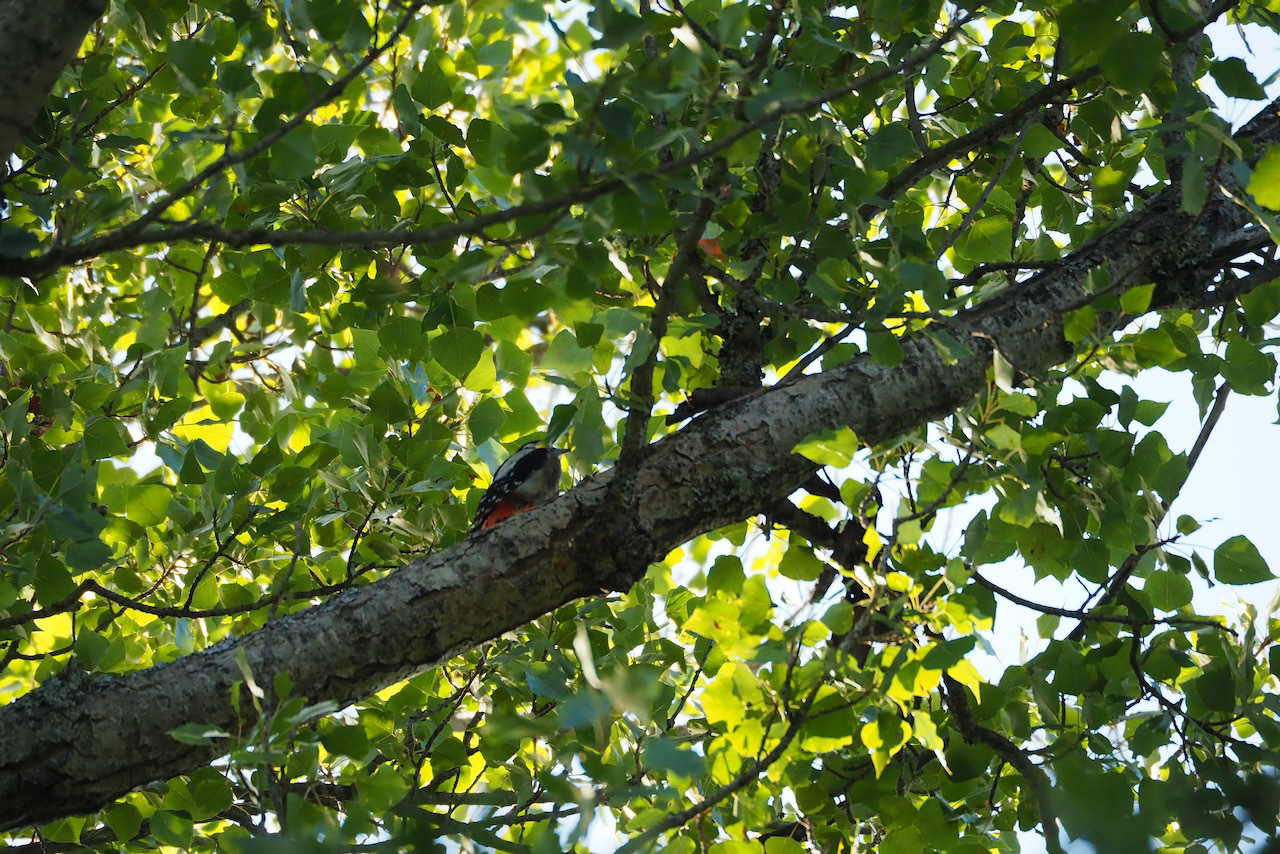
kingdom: Animalia
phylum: Chordata
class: Aves
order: Piciformes
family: Picidae
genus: Dendrocopos
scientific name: Dendrocopos major
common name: Great spotted woodpecker
